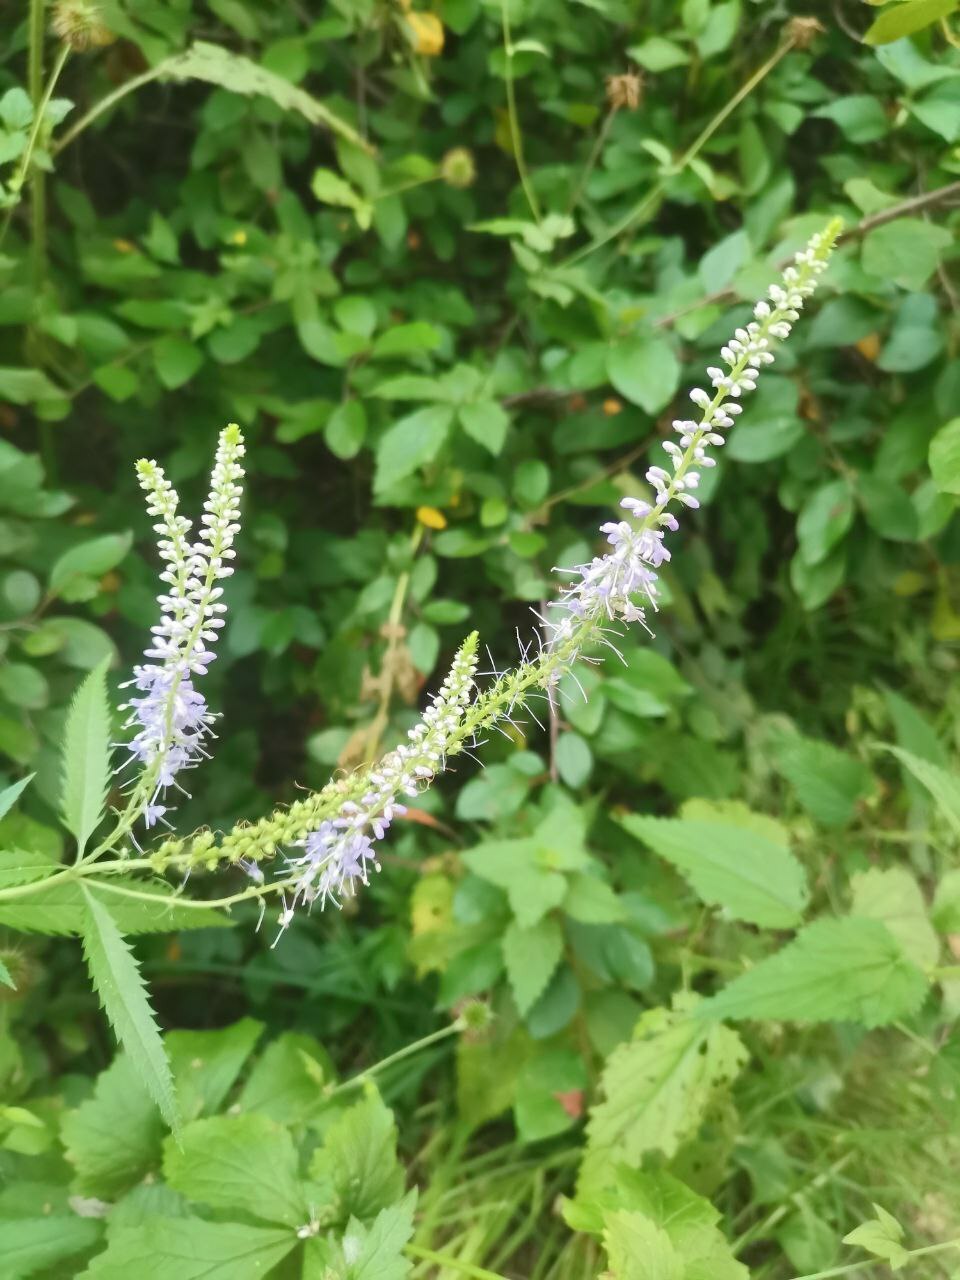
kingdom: Plantae
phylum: Tracheophyta
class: Magnoliopsida
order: Lamiales
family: Plantaginaceae
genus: Veronica
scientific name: Veronica longifolia
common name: Garden speedwell
